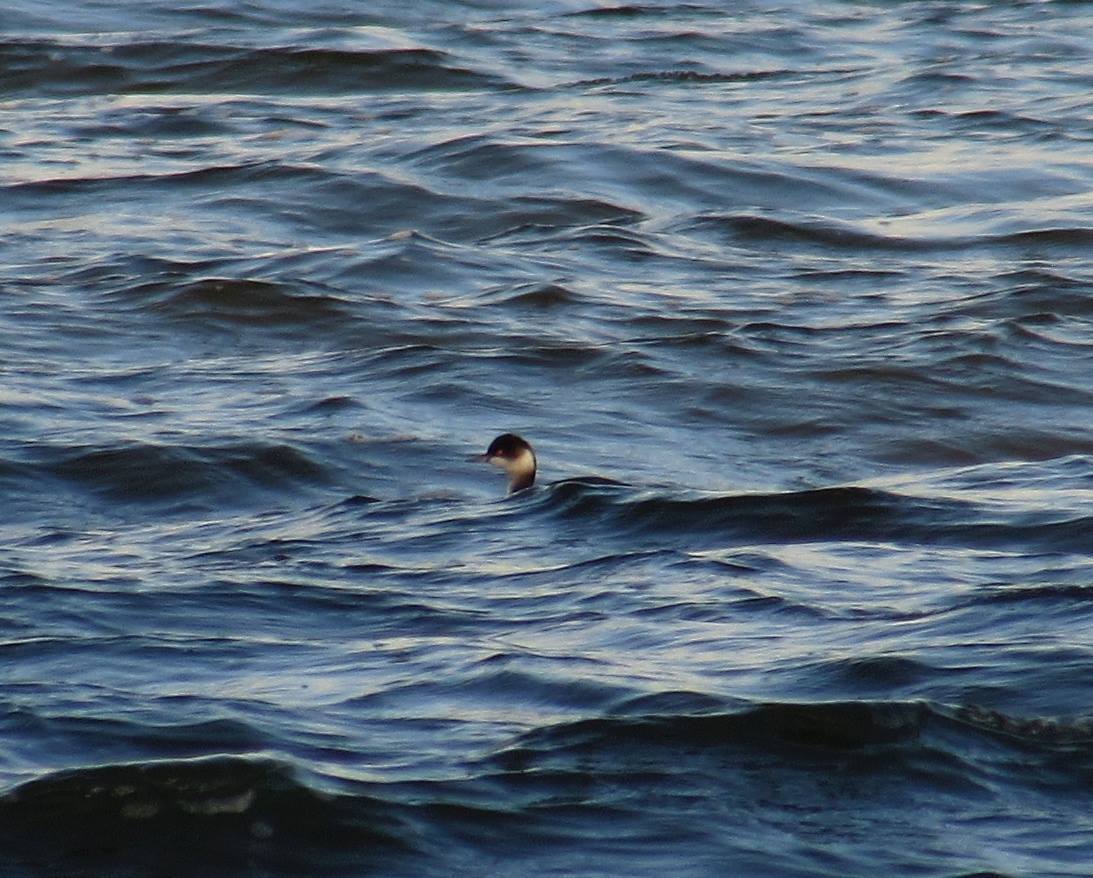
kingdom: Animalia
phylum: Chordata
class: Aves
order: Podicipediformes
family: Podicipedidae
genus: Podiceps
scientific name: Podiceps nigricollis
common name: Black-necked grebe
